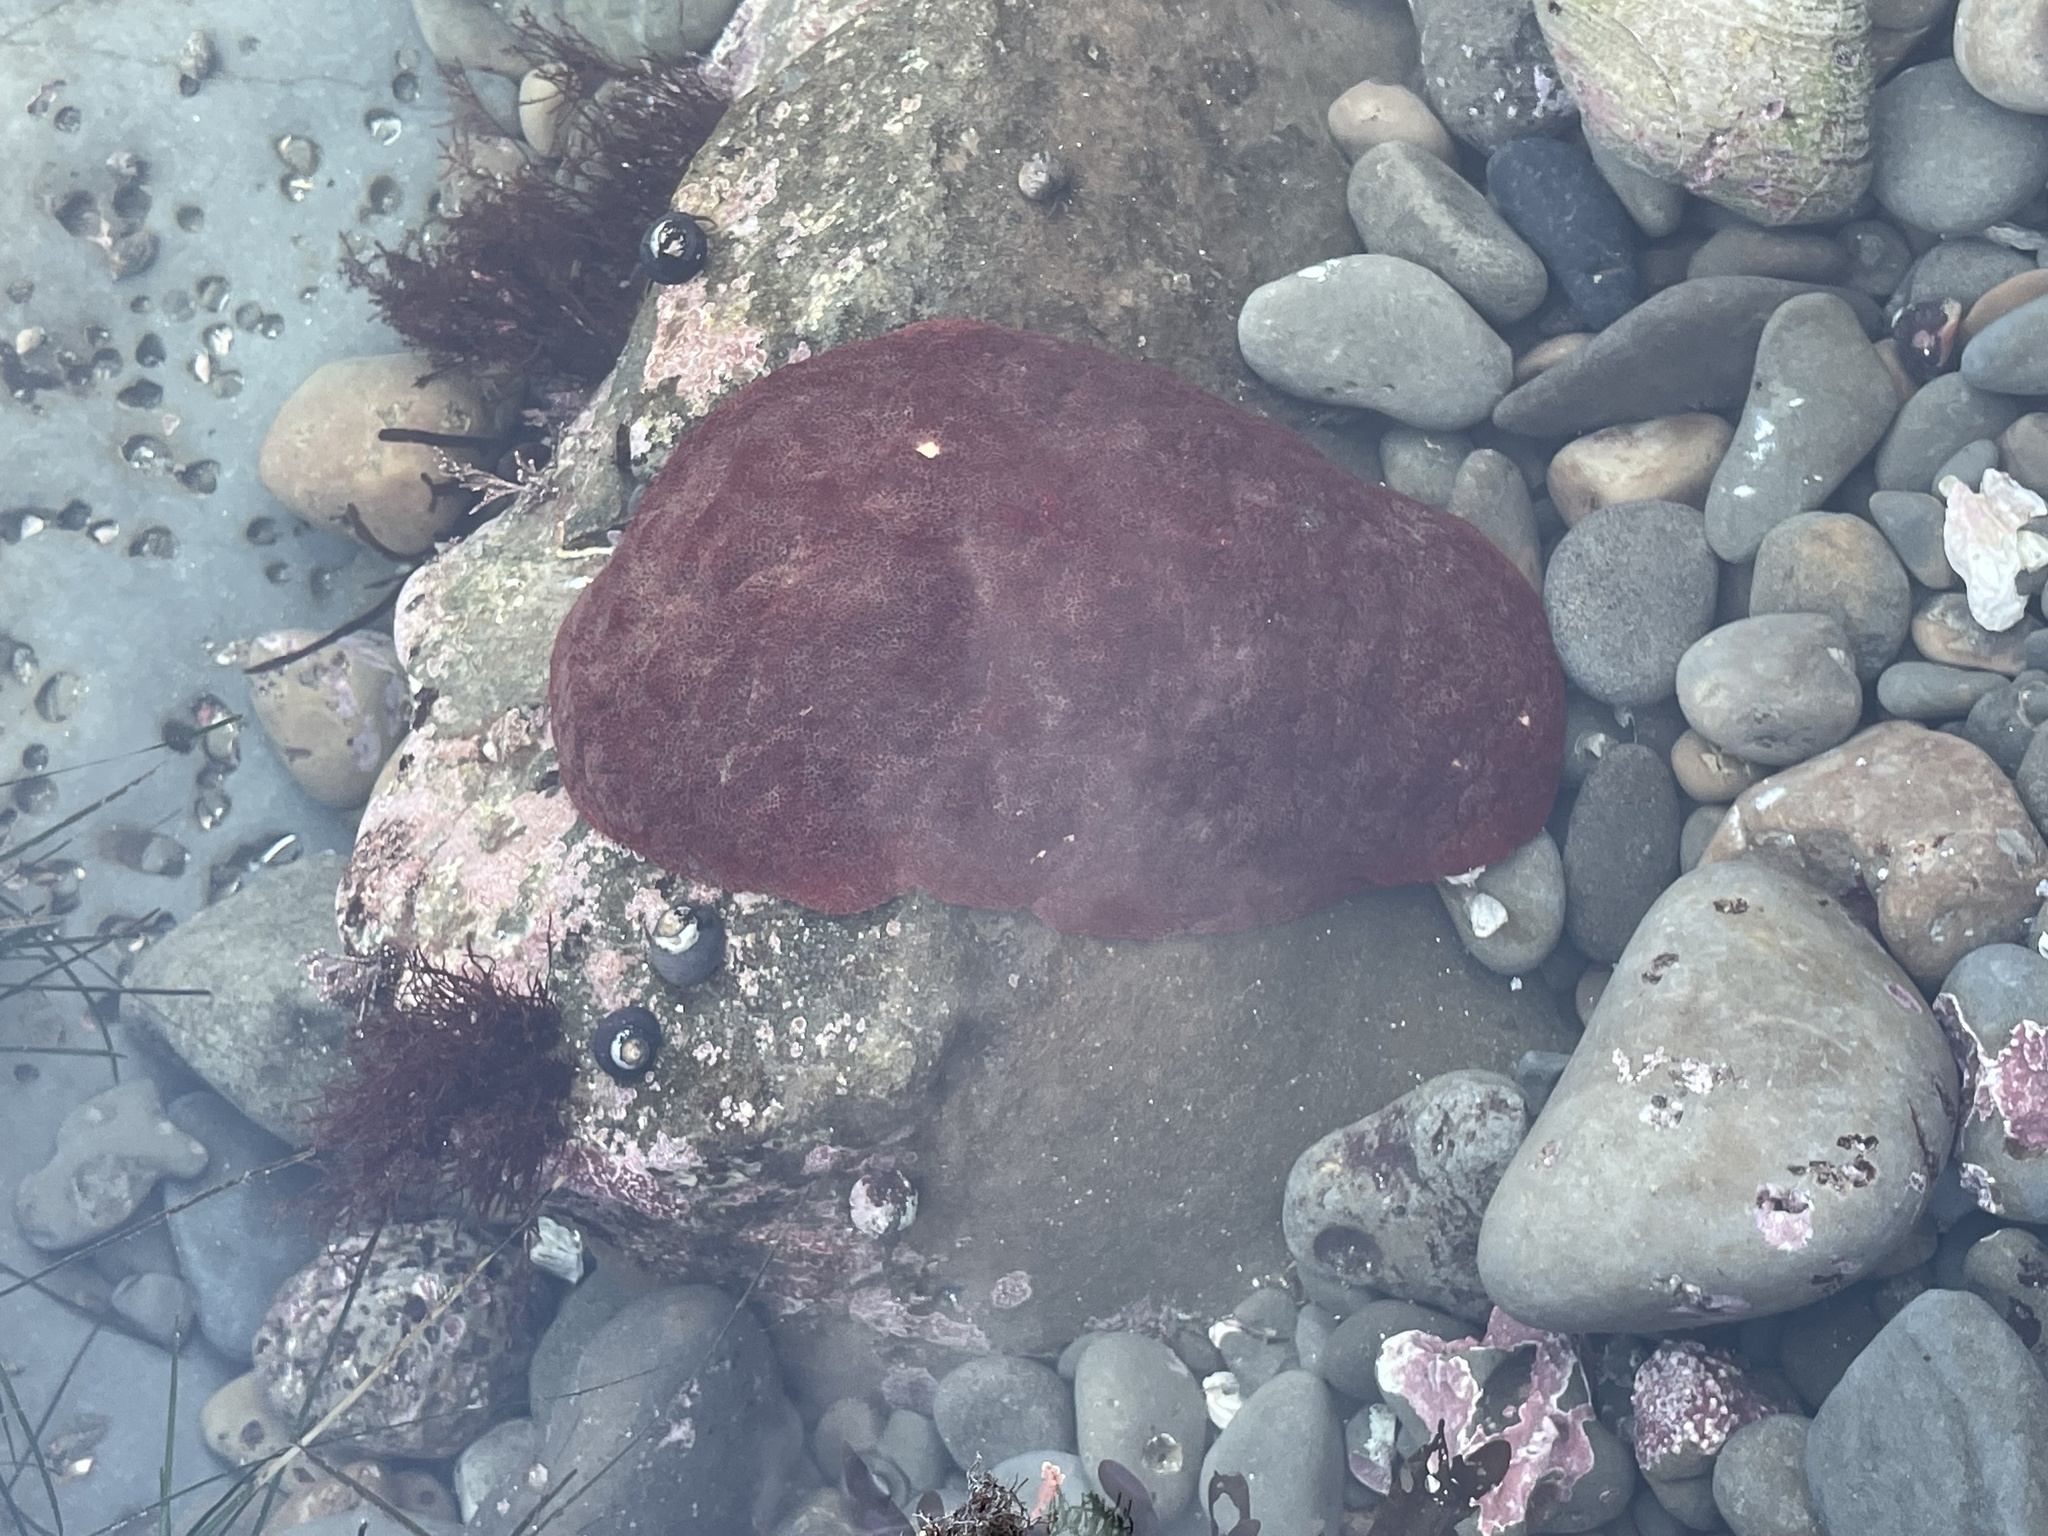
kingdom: Animalia
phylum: Mollusca
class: Polyplacophora
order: Chitonida
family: Acanthochitonidae
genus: Cryptochiton
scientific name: Cryptochiton stelleri
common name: Giant pacific chiton
